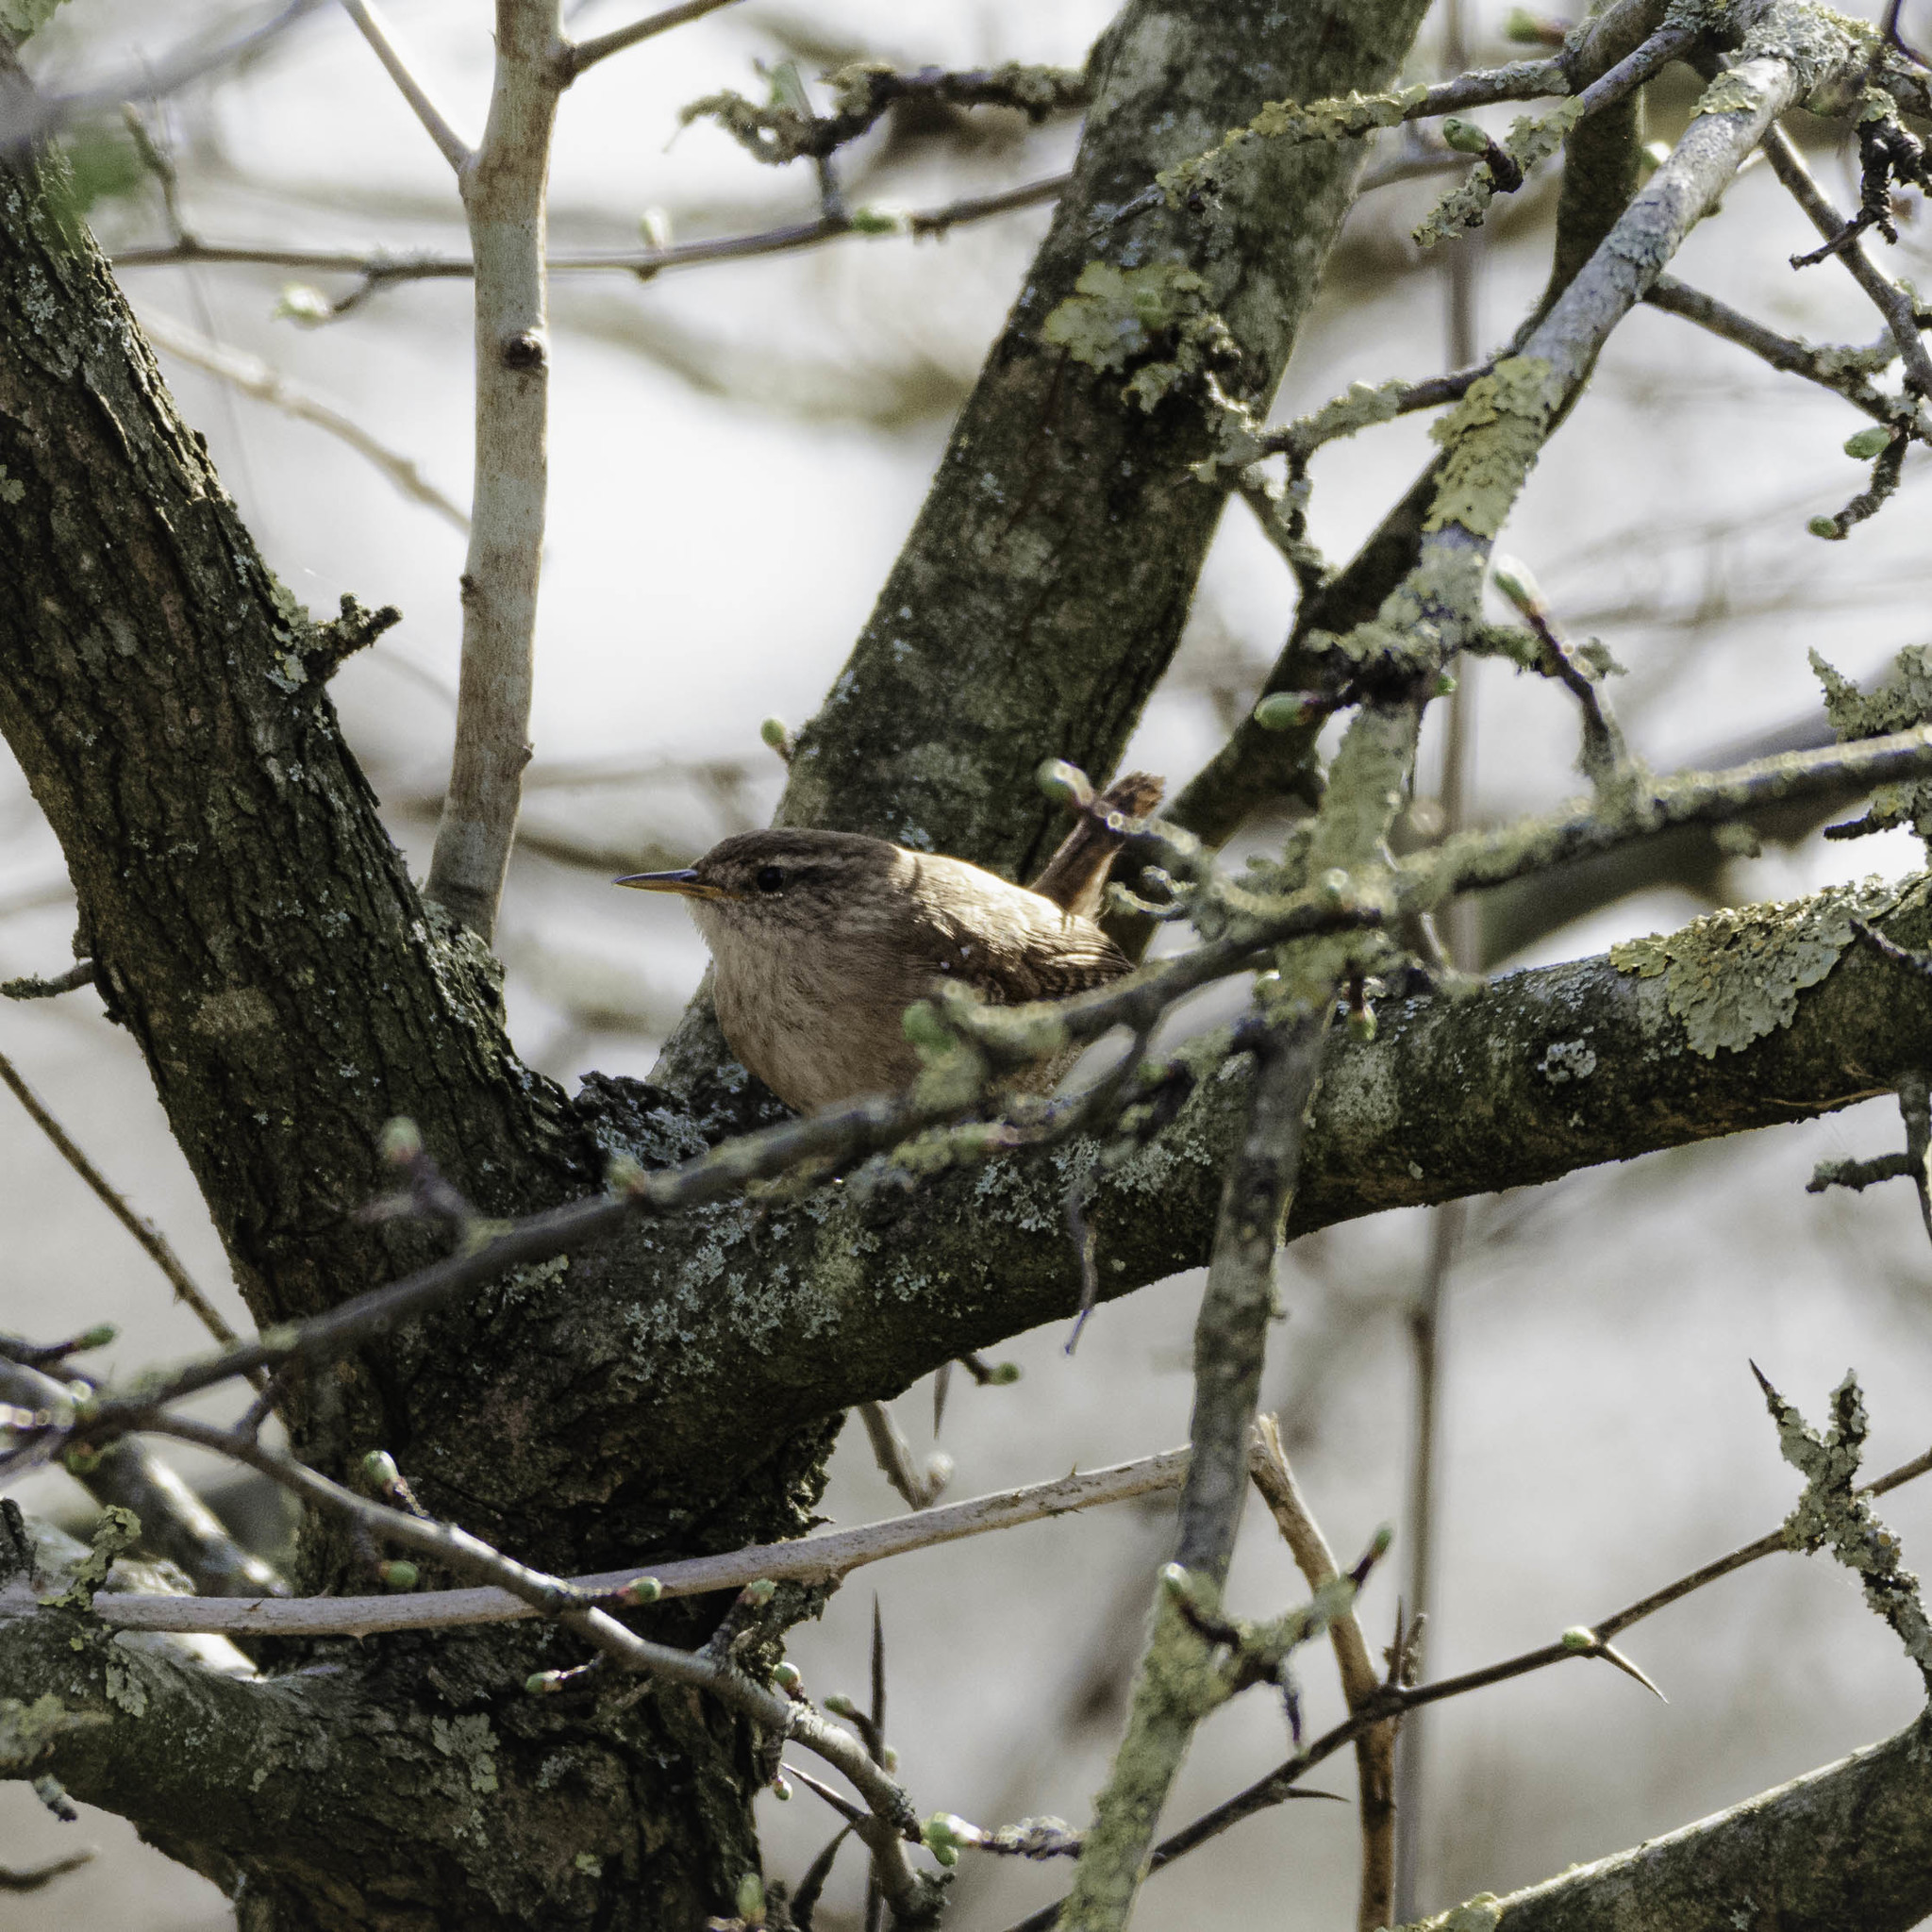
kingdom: Animalia
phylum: Chordata
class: Aves
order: Passeriformes
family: Troglodytidae
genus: Troglodytes
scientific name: Troglodytes troglodytes
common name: Eurasian wren
